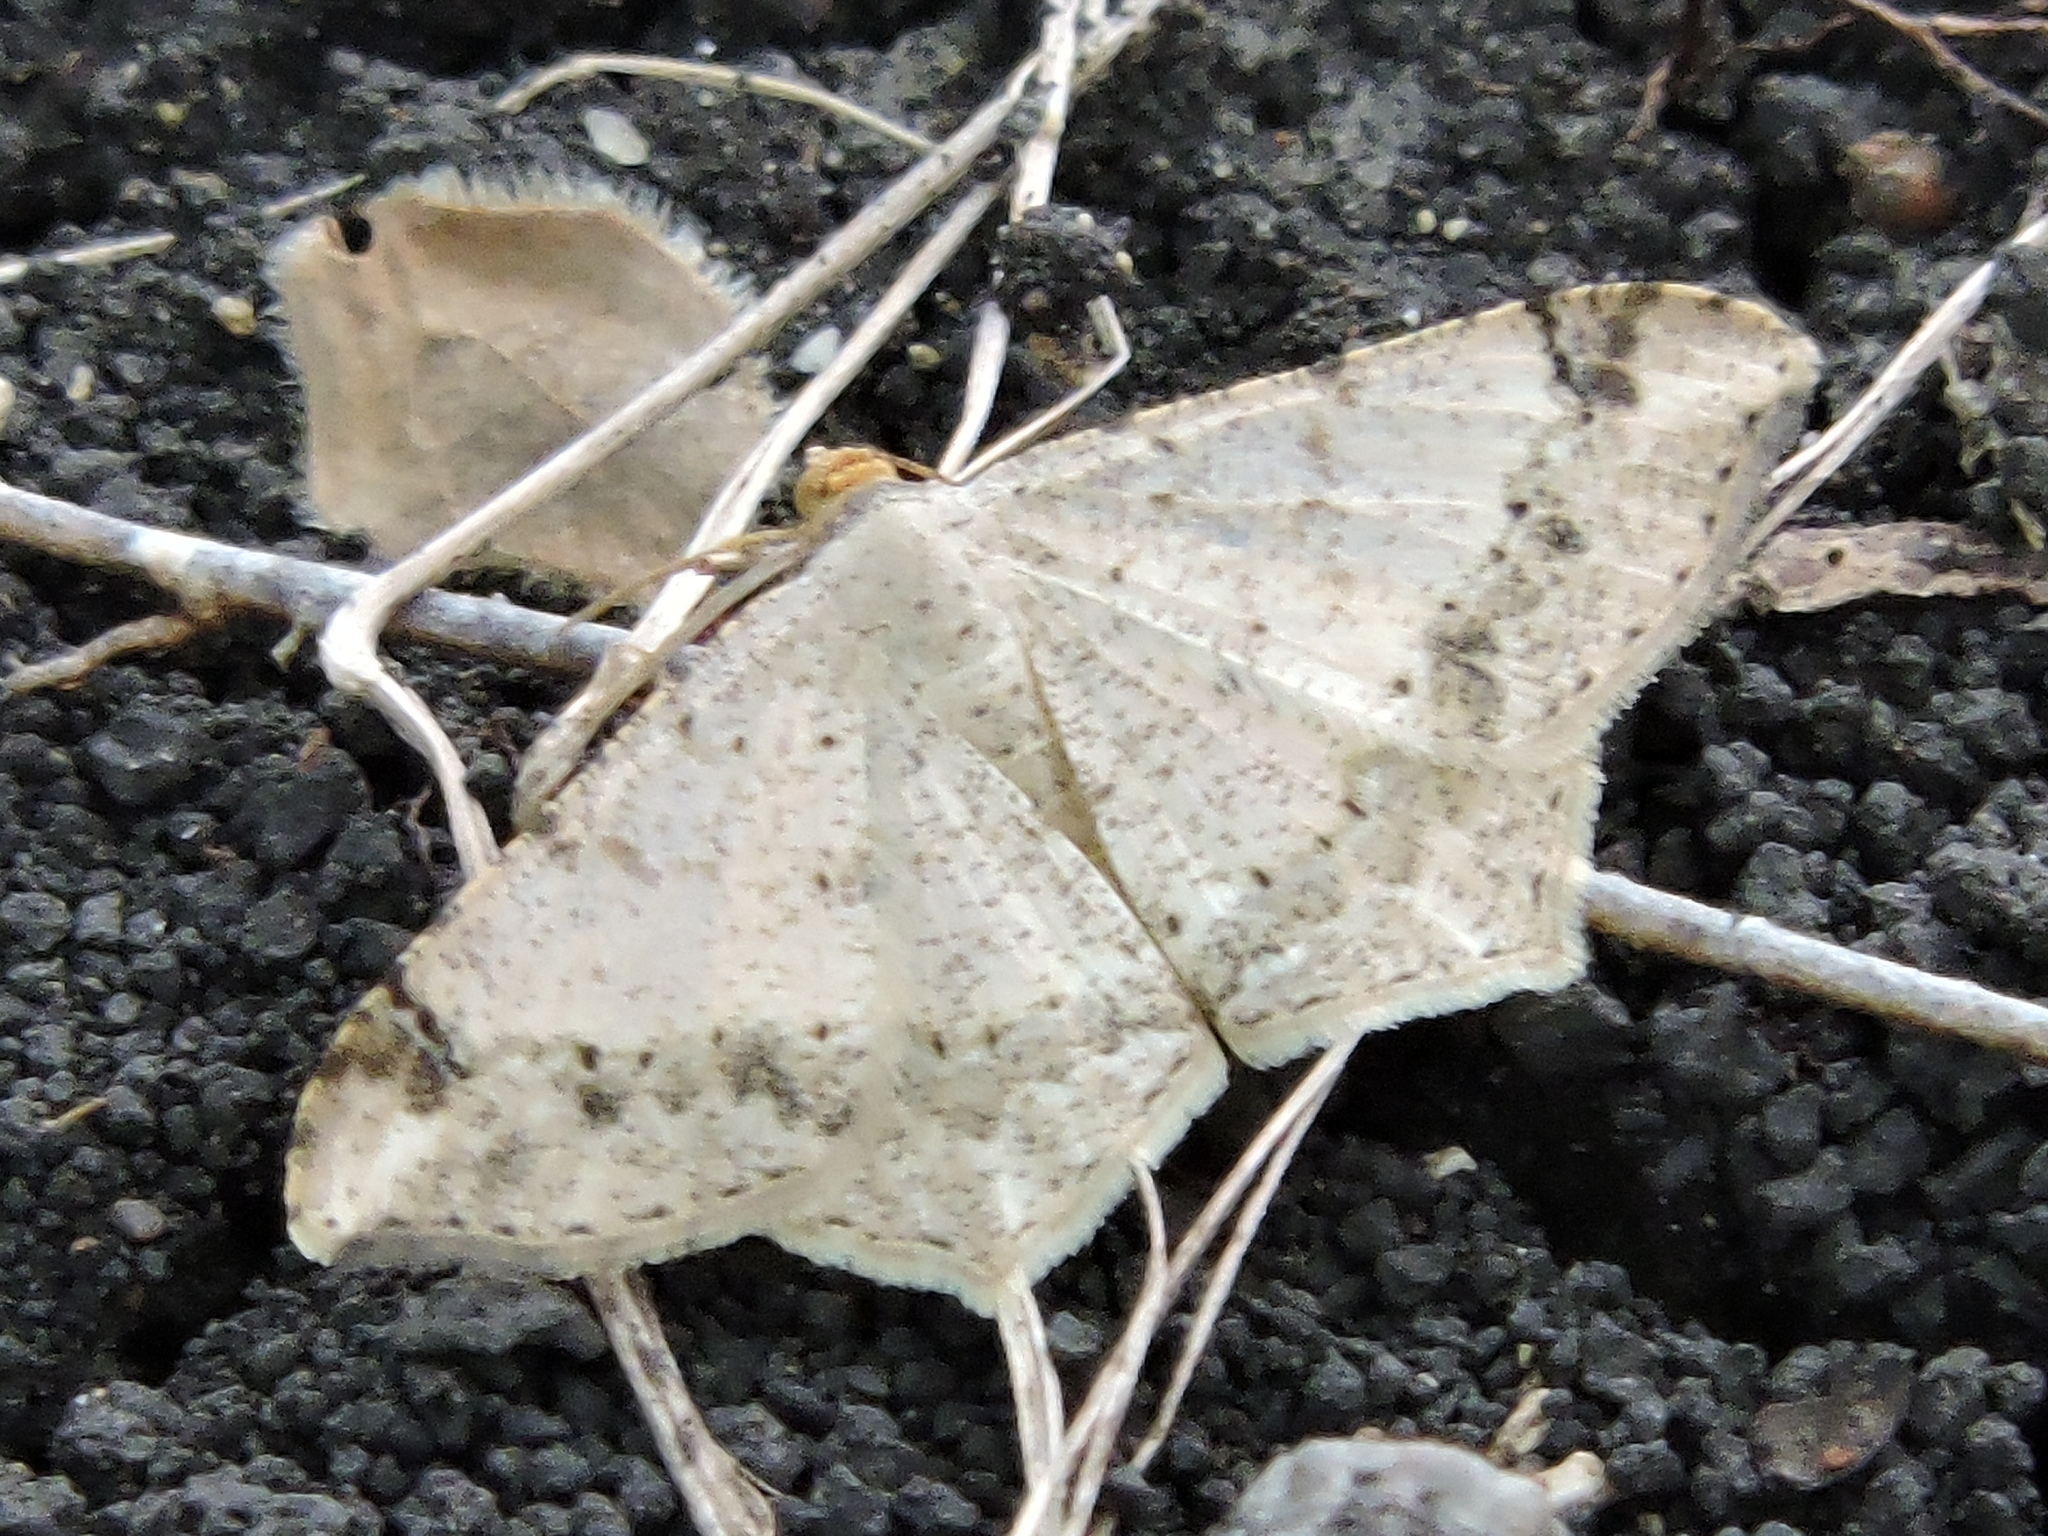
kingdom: Animalia
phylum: Arthropoda
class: Insecta
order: Lepidoptera
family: Geometridae
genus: Macaria
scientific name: Macaria abydata
